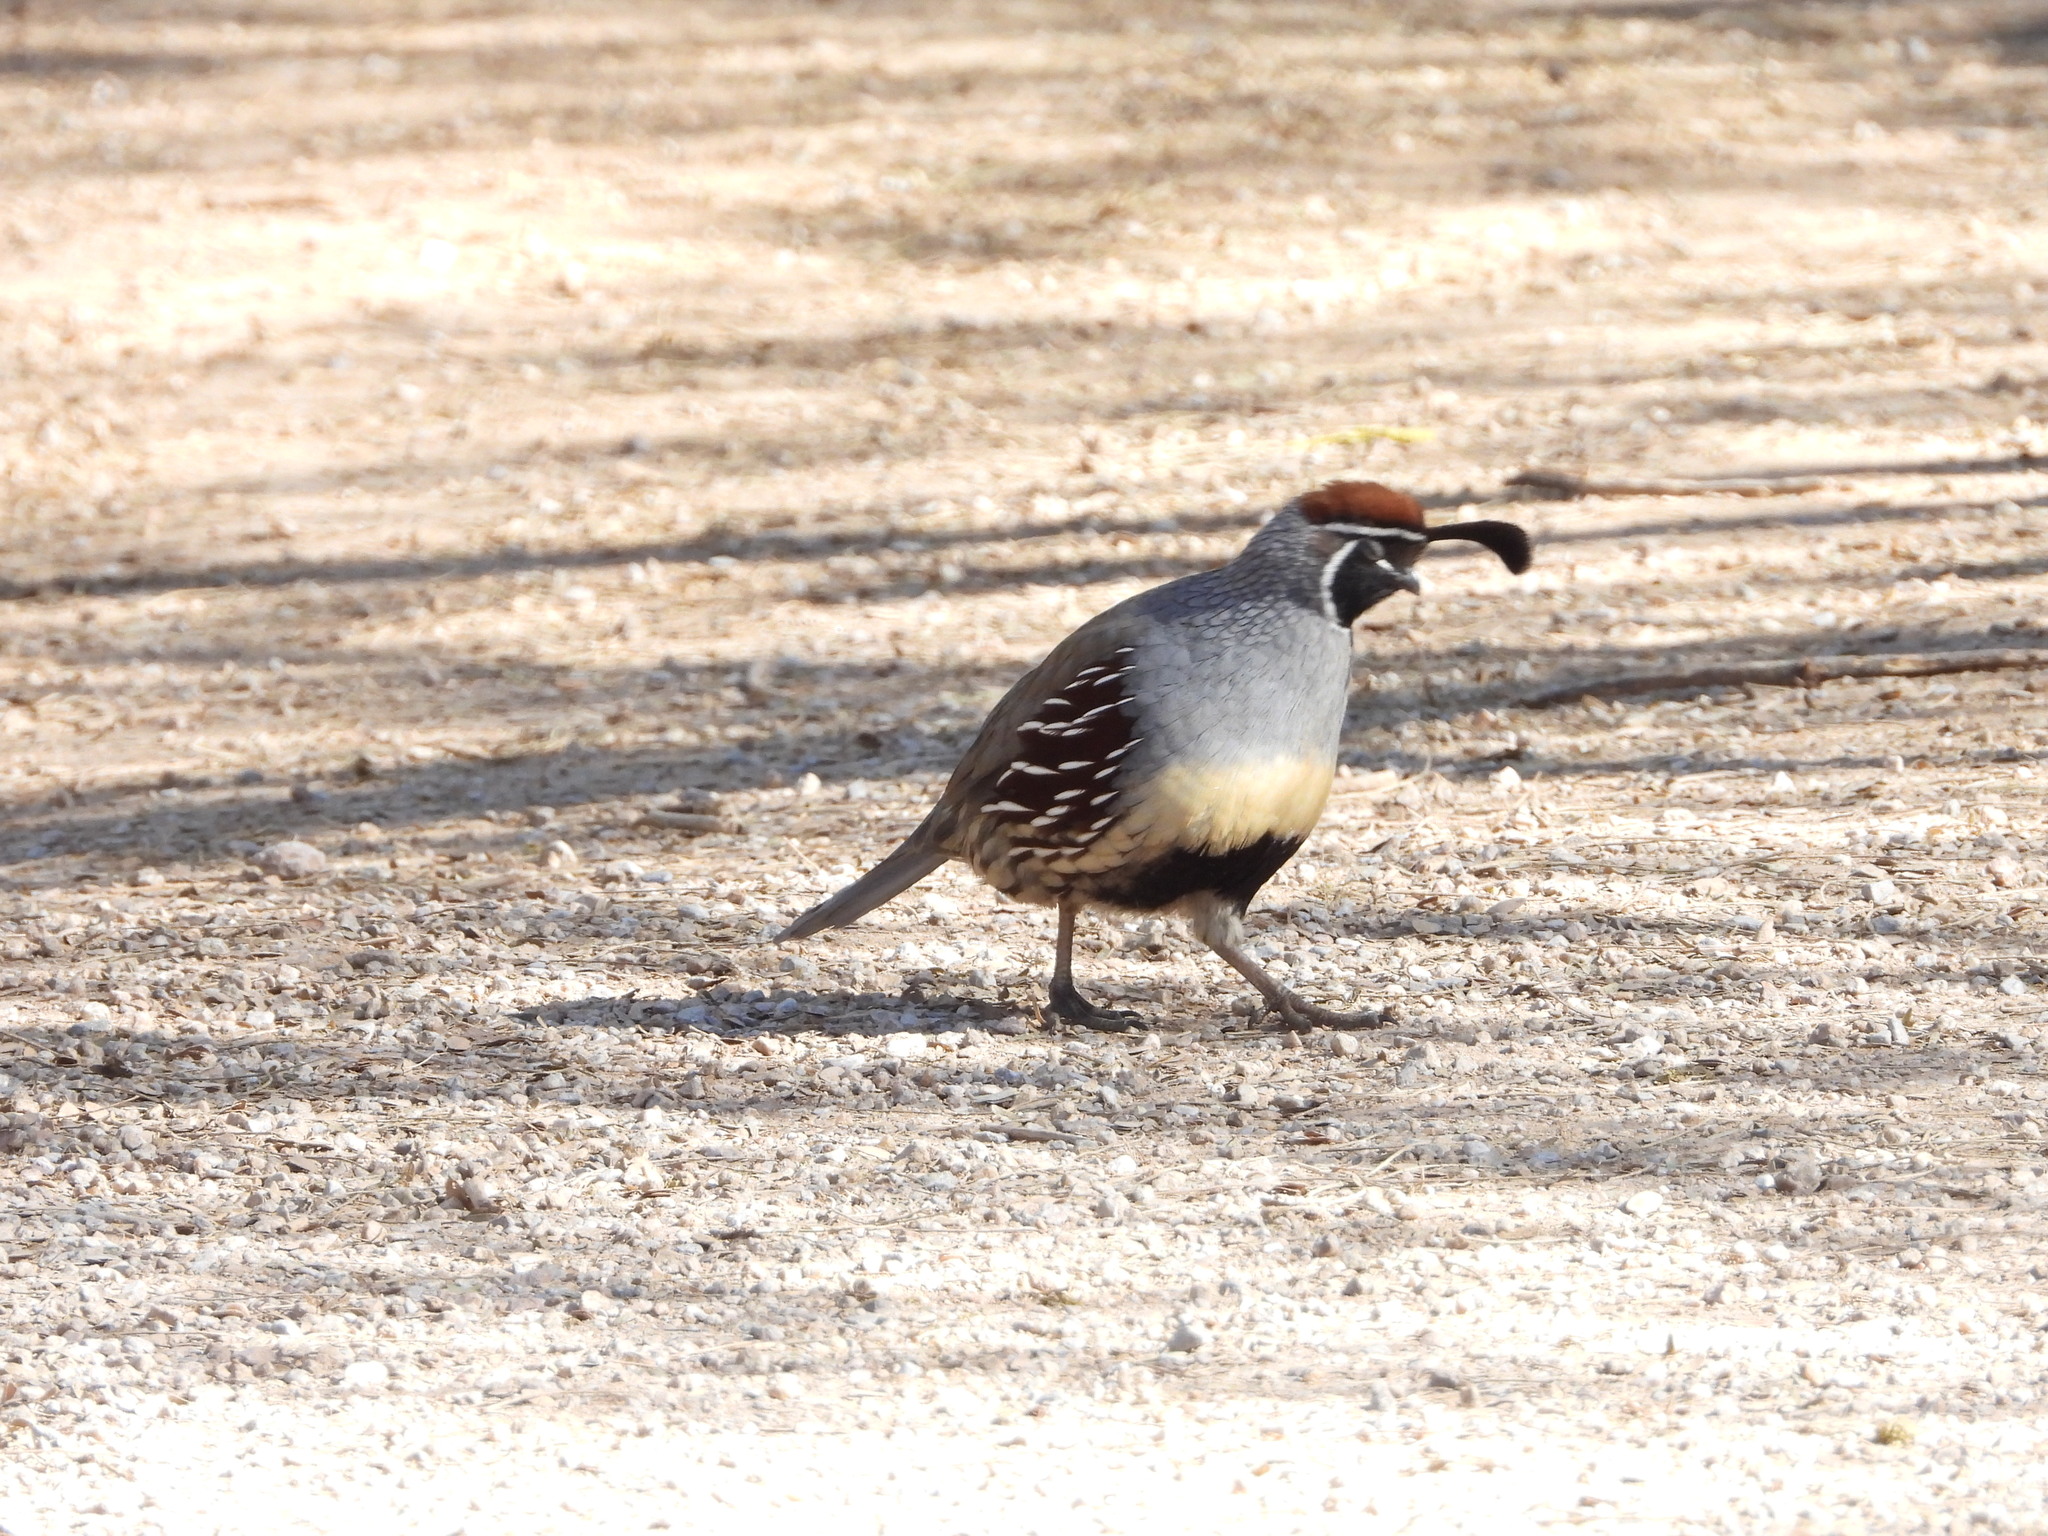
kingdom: Animalia
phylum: Chordata
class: Aves
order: Galliformes
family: Odontophoridae
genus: Callipepla
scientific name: Callipepla gambelii
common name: Gambel's quail
